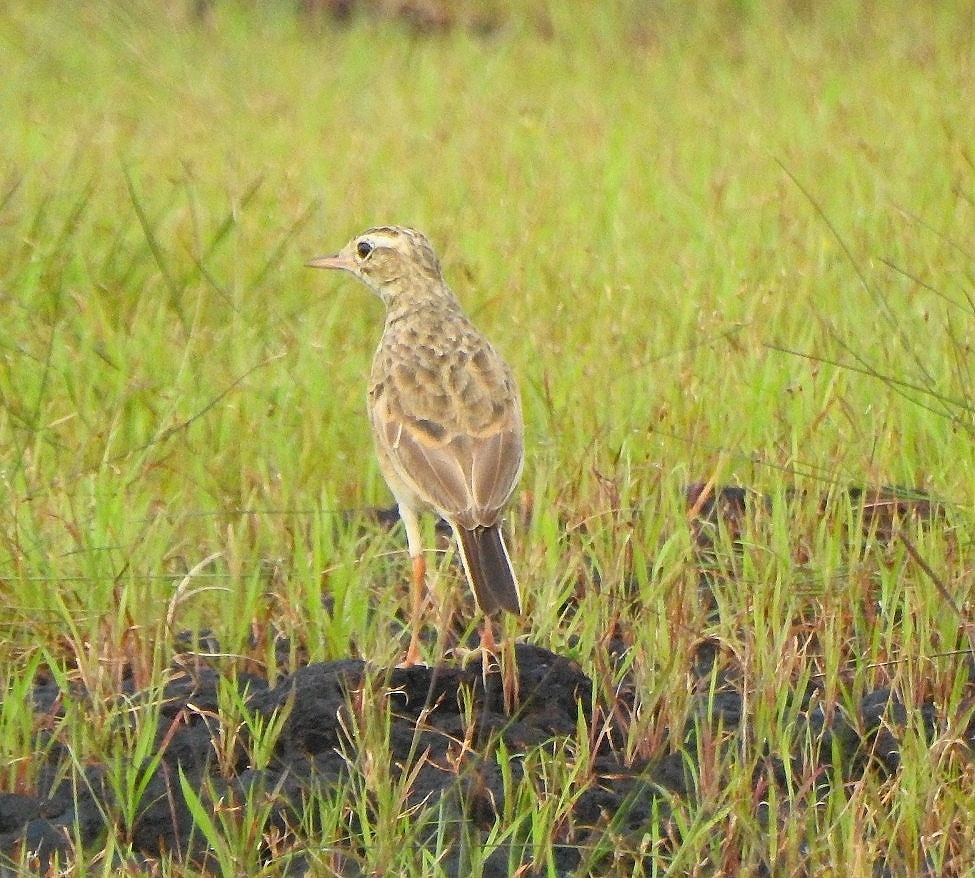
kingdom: Animalia
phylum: Chordata
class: Aves
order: Passeriformes
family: Motacillidae
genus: Anthus
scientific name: Anthus rufulus
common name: Paddyfield pipit
